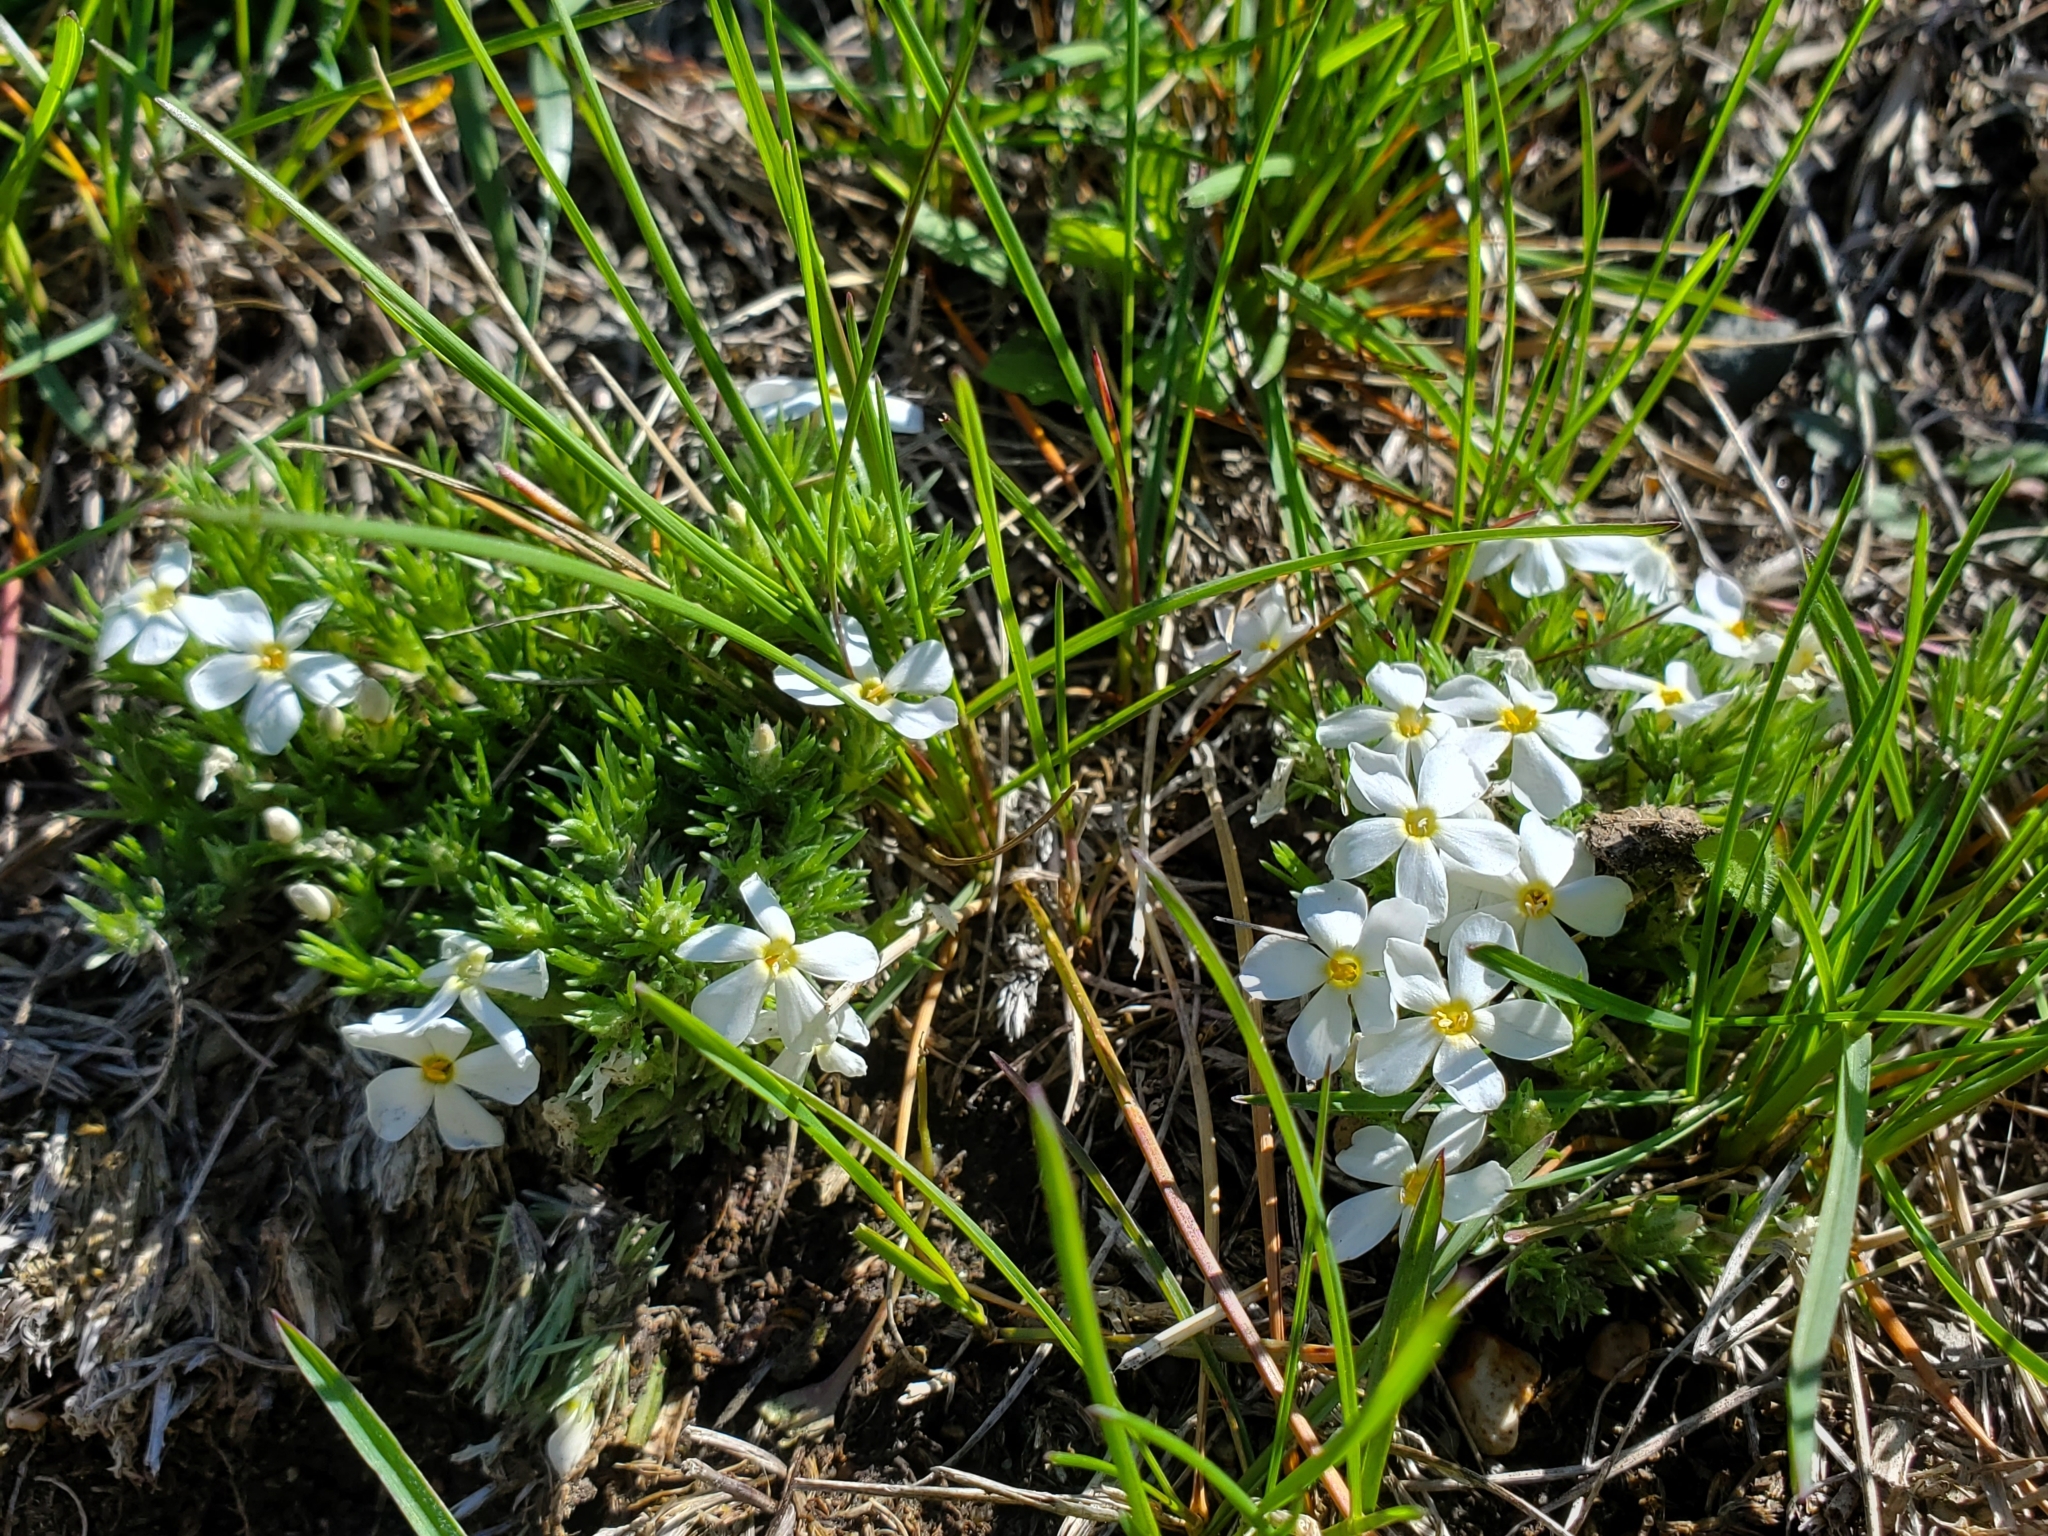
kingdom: Plantae
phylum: Tracheophyta
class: Magnoliopsida
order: Ericales
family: Polemoniaceae
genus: Phlox
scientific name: Phlox hoodii
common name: Moss phlox
